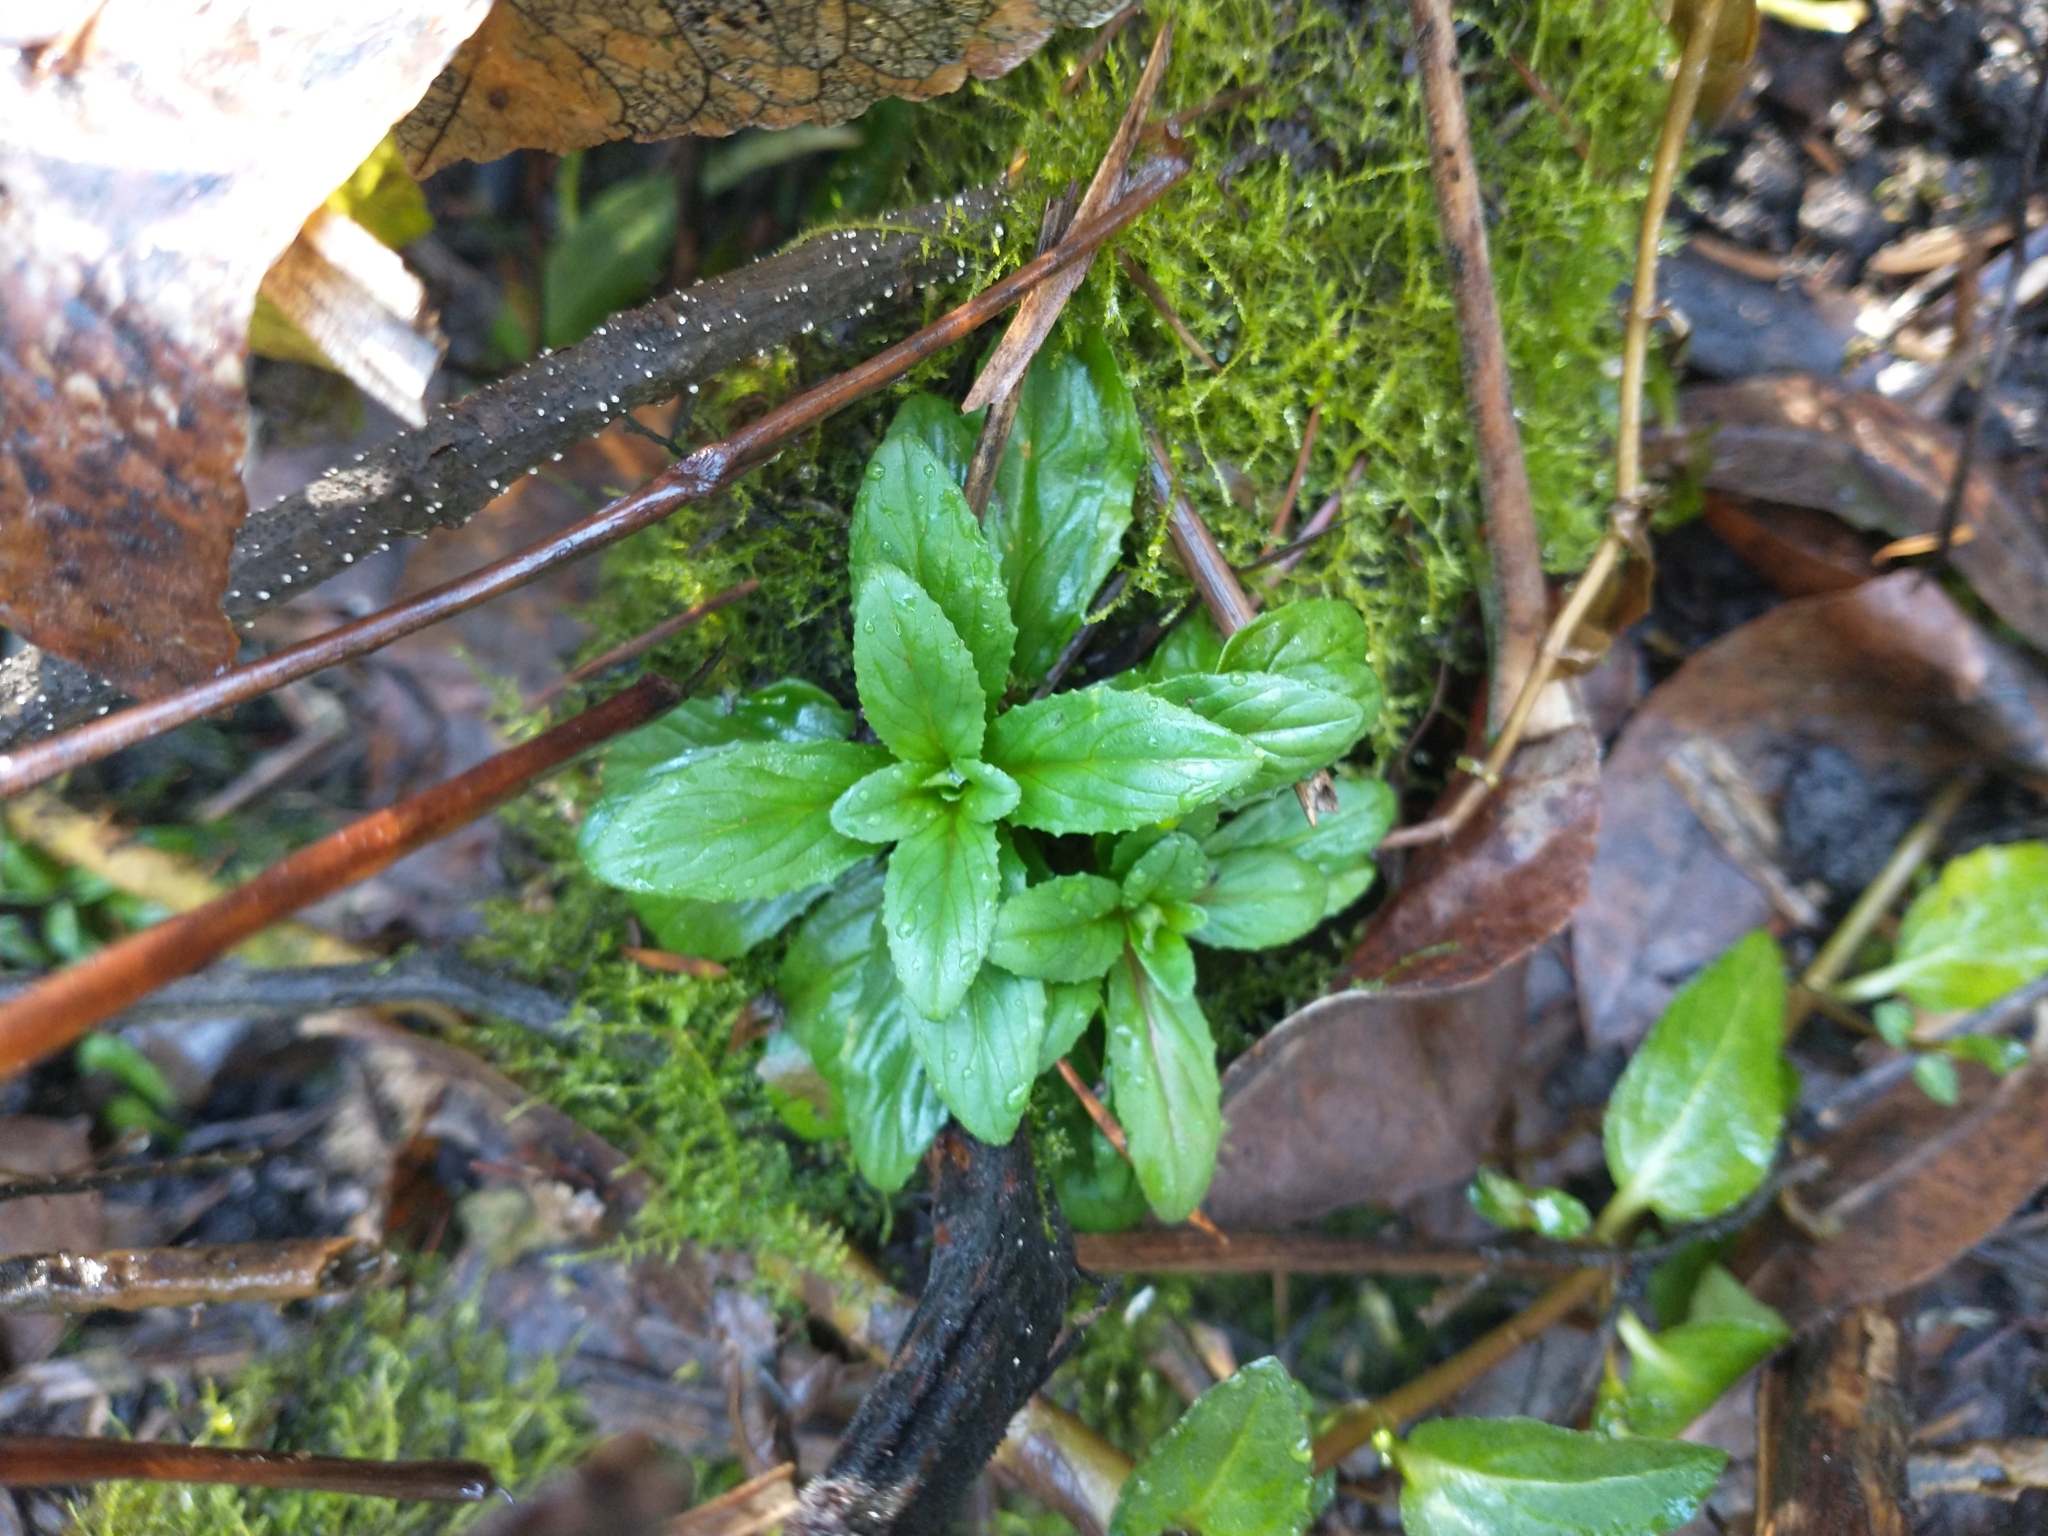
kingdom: Plantae
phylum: Tracheophyta
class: Magnoliopsida
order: Myrtales
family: Onagraceae
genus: Epilobium
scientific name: Epilobium ciliatum
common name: American willowherb
